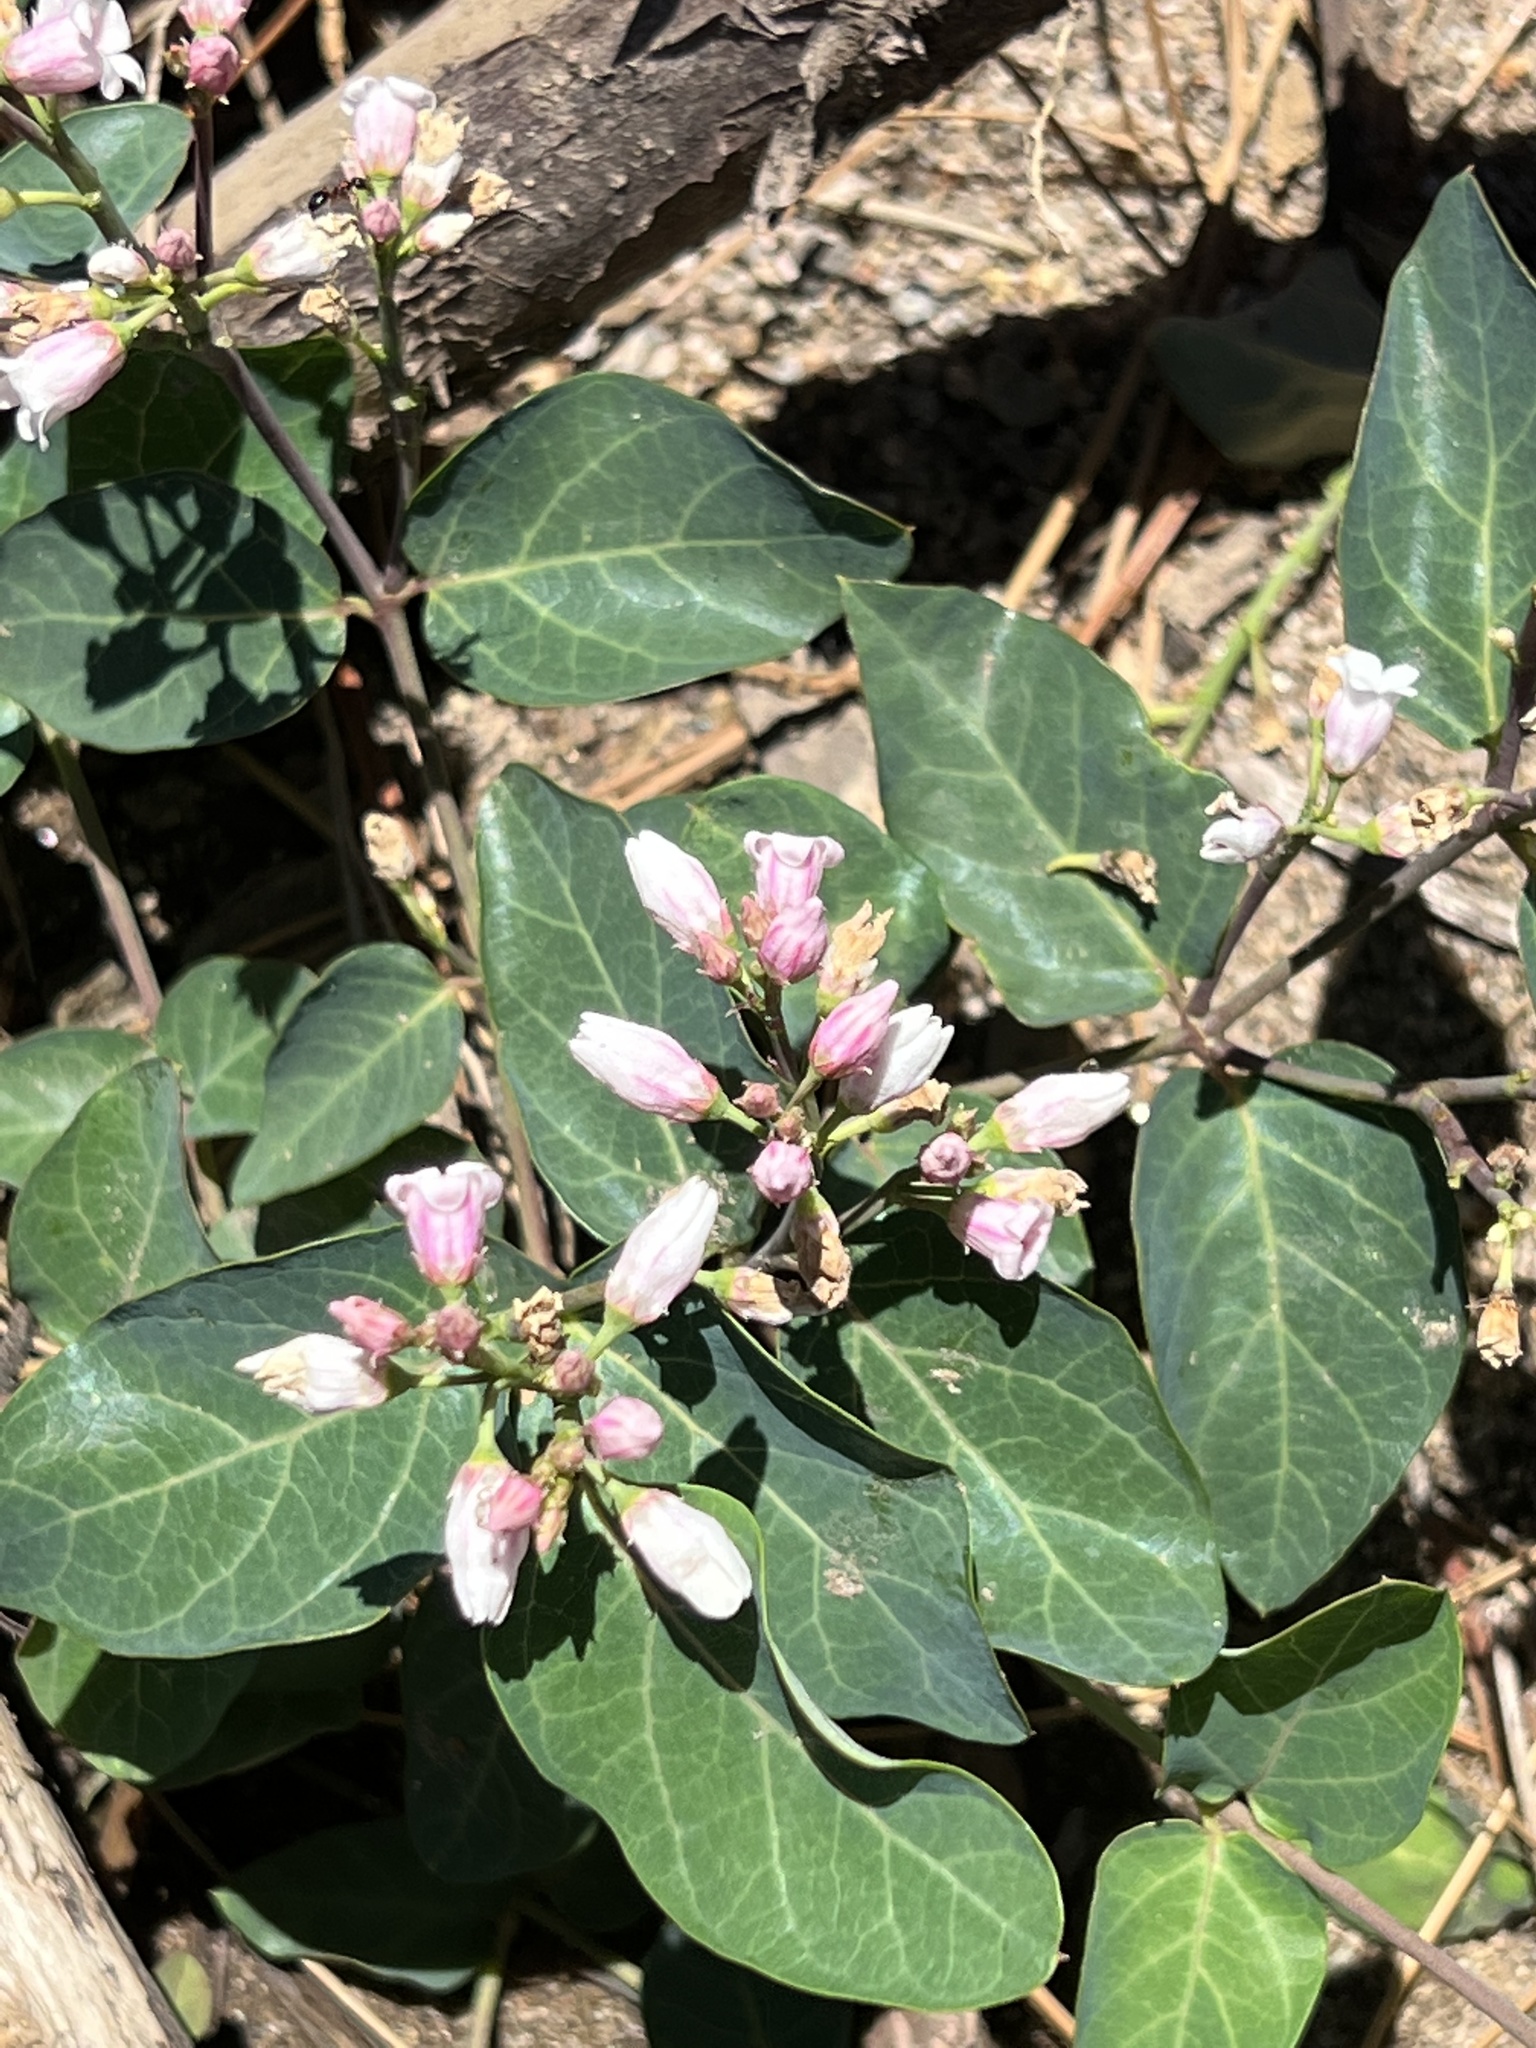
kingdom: Plantae
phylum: Tracheophyta
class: Magnoliopsida
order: Gentianales
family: Apocynaceae
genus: Apocynum
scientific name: Apocynum androsaemifolium
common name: Spreading dogbane
